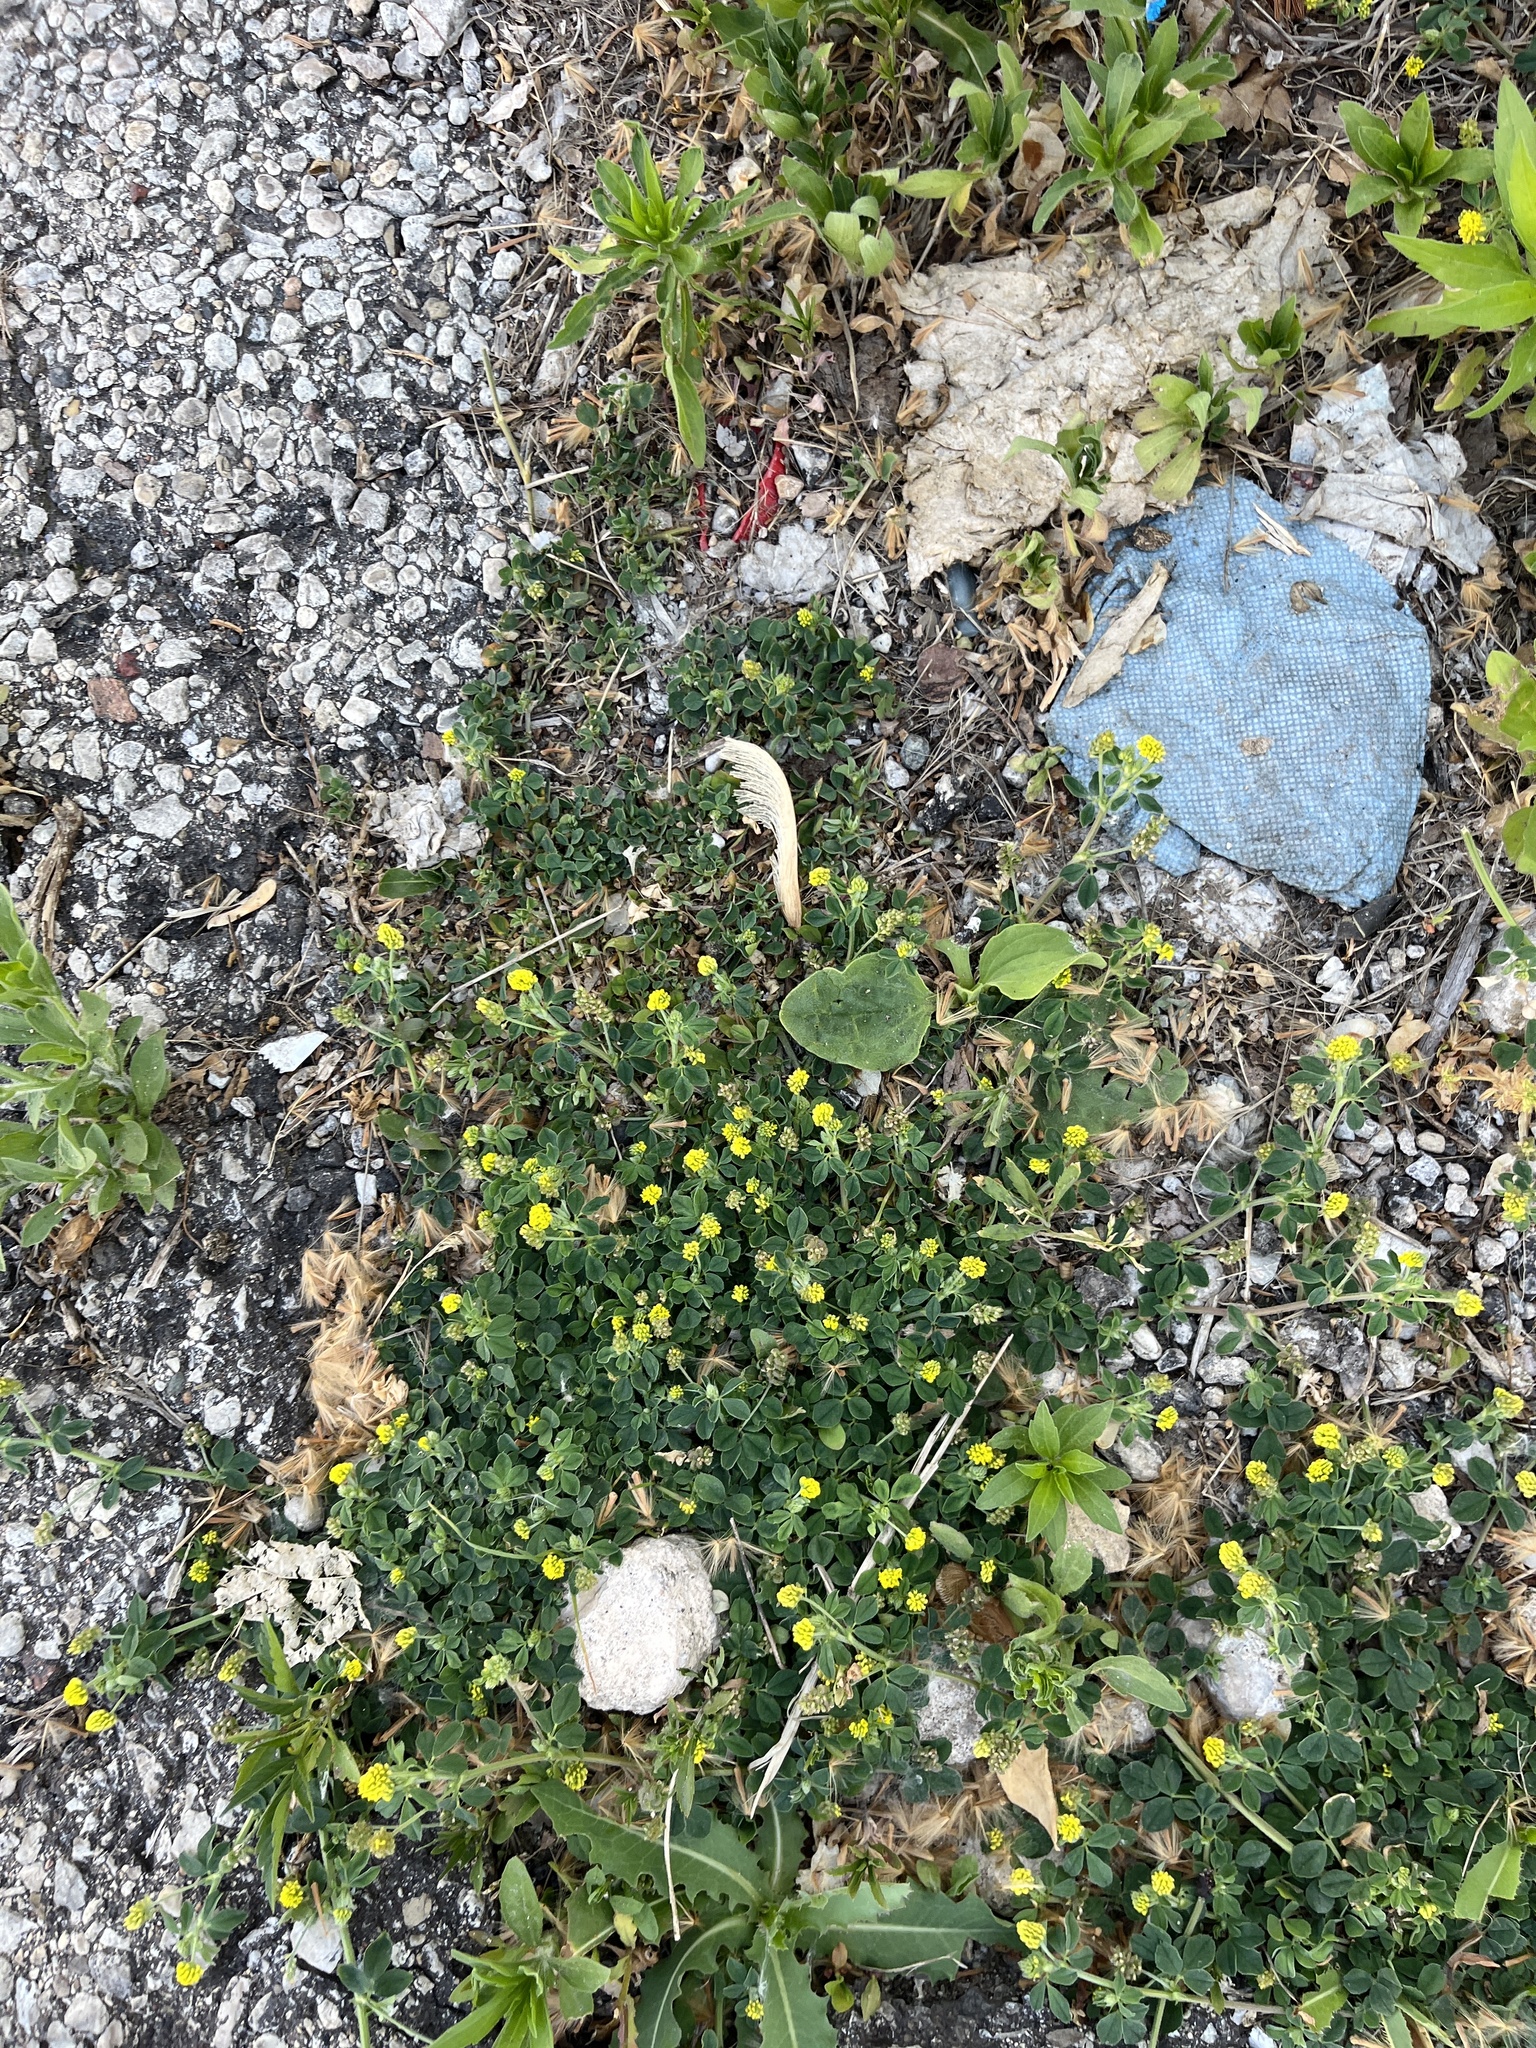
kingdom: Plantae
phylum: Tracheophyta
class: Magnoliopsida
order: Fabales
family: Fabaceae
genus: Medicago
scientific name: Medicago lupulina
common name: Black medick
